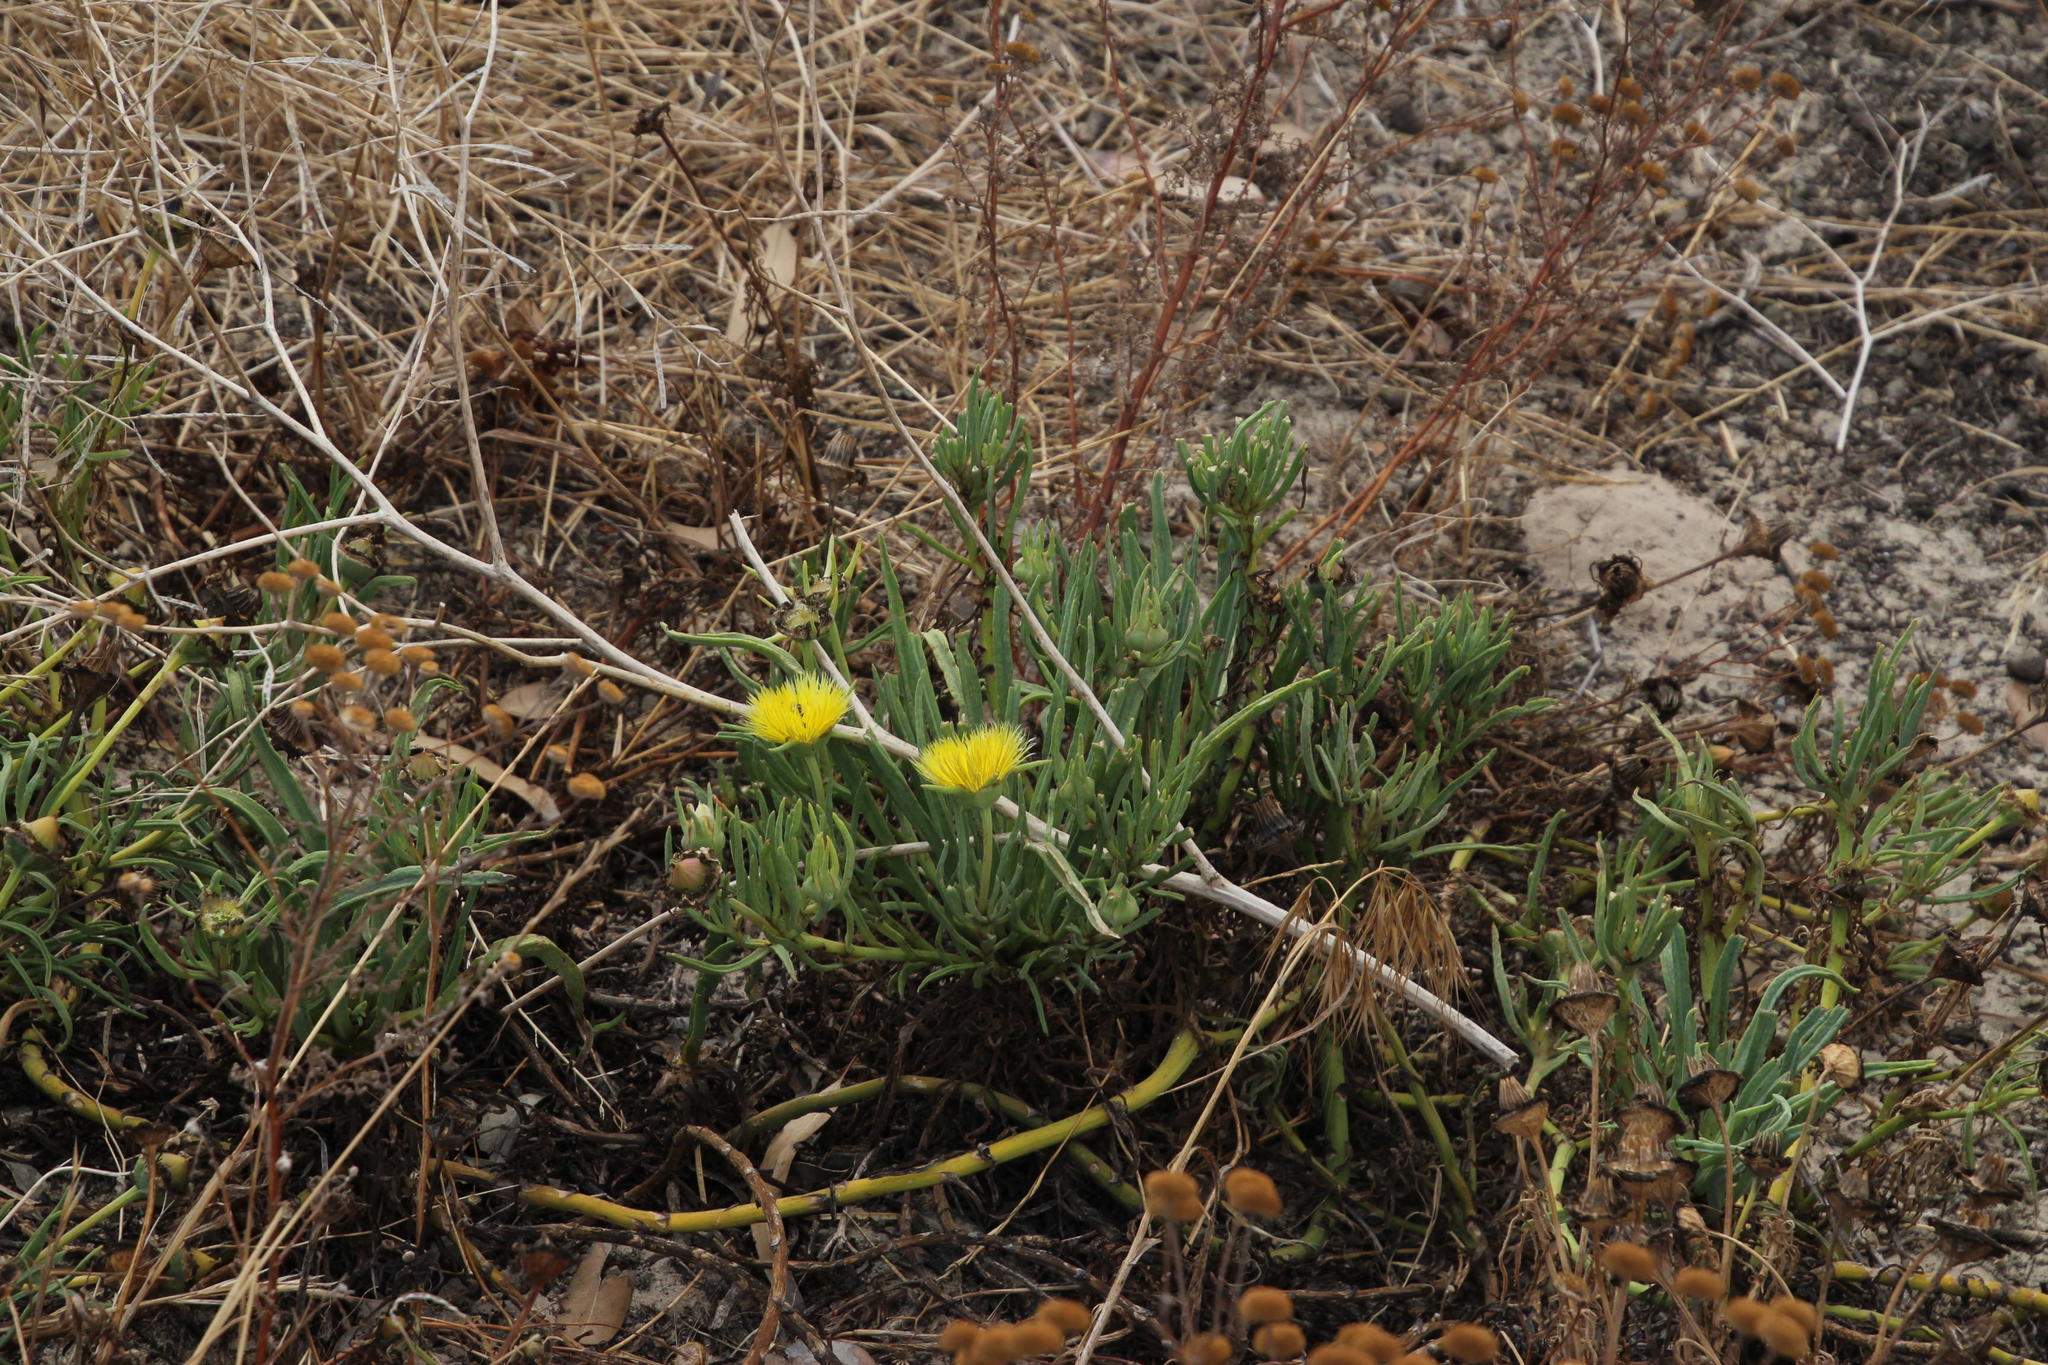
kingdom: Plantae
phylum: Tracheophyta
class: Magnoliopsida
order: Caryophyllales
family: Aizoaceae
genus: Conicosia
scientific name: Conicosia pugioniformis
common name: Narrow-leaved iceplant
